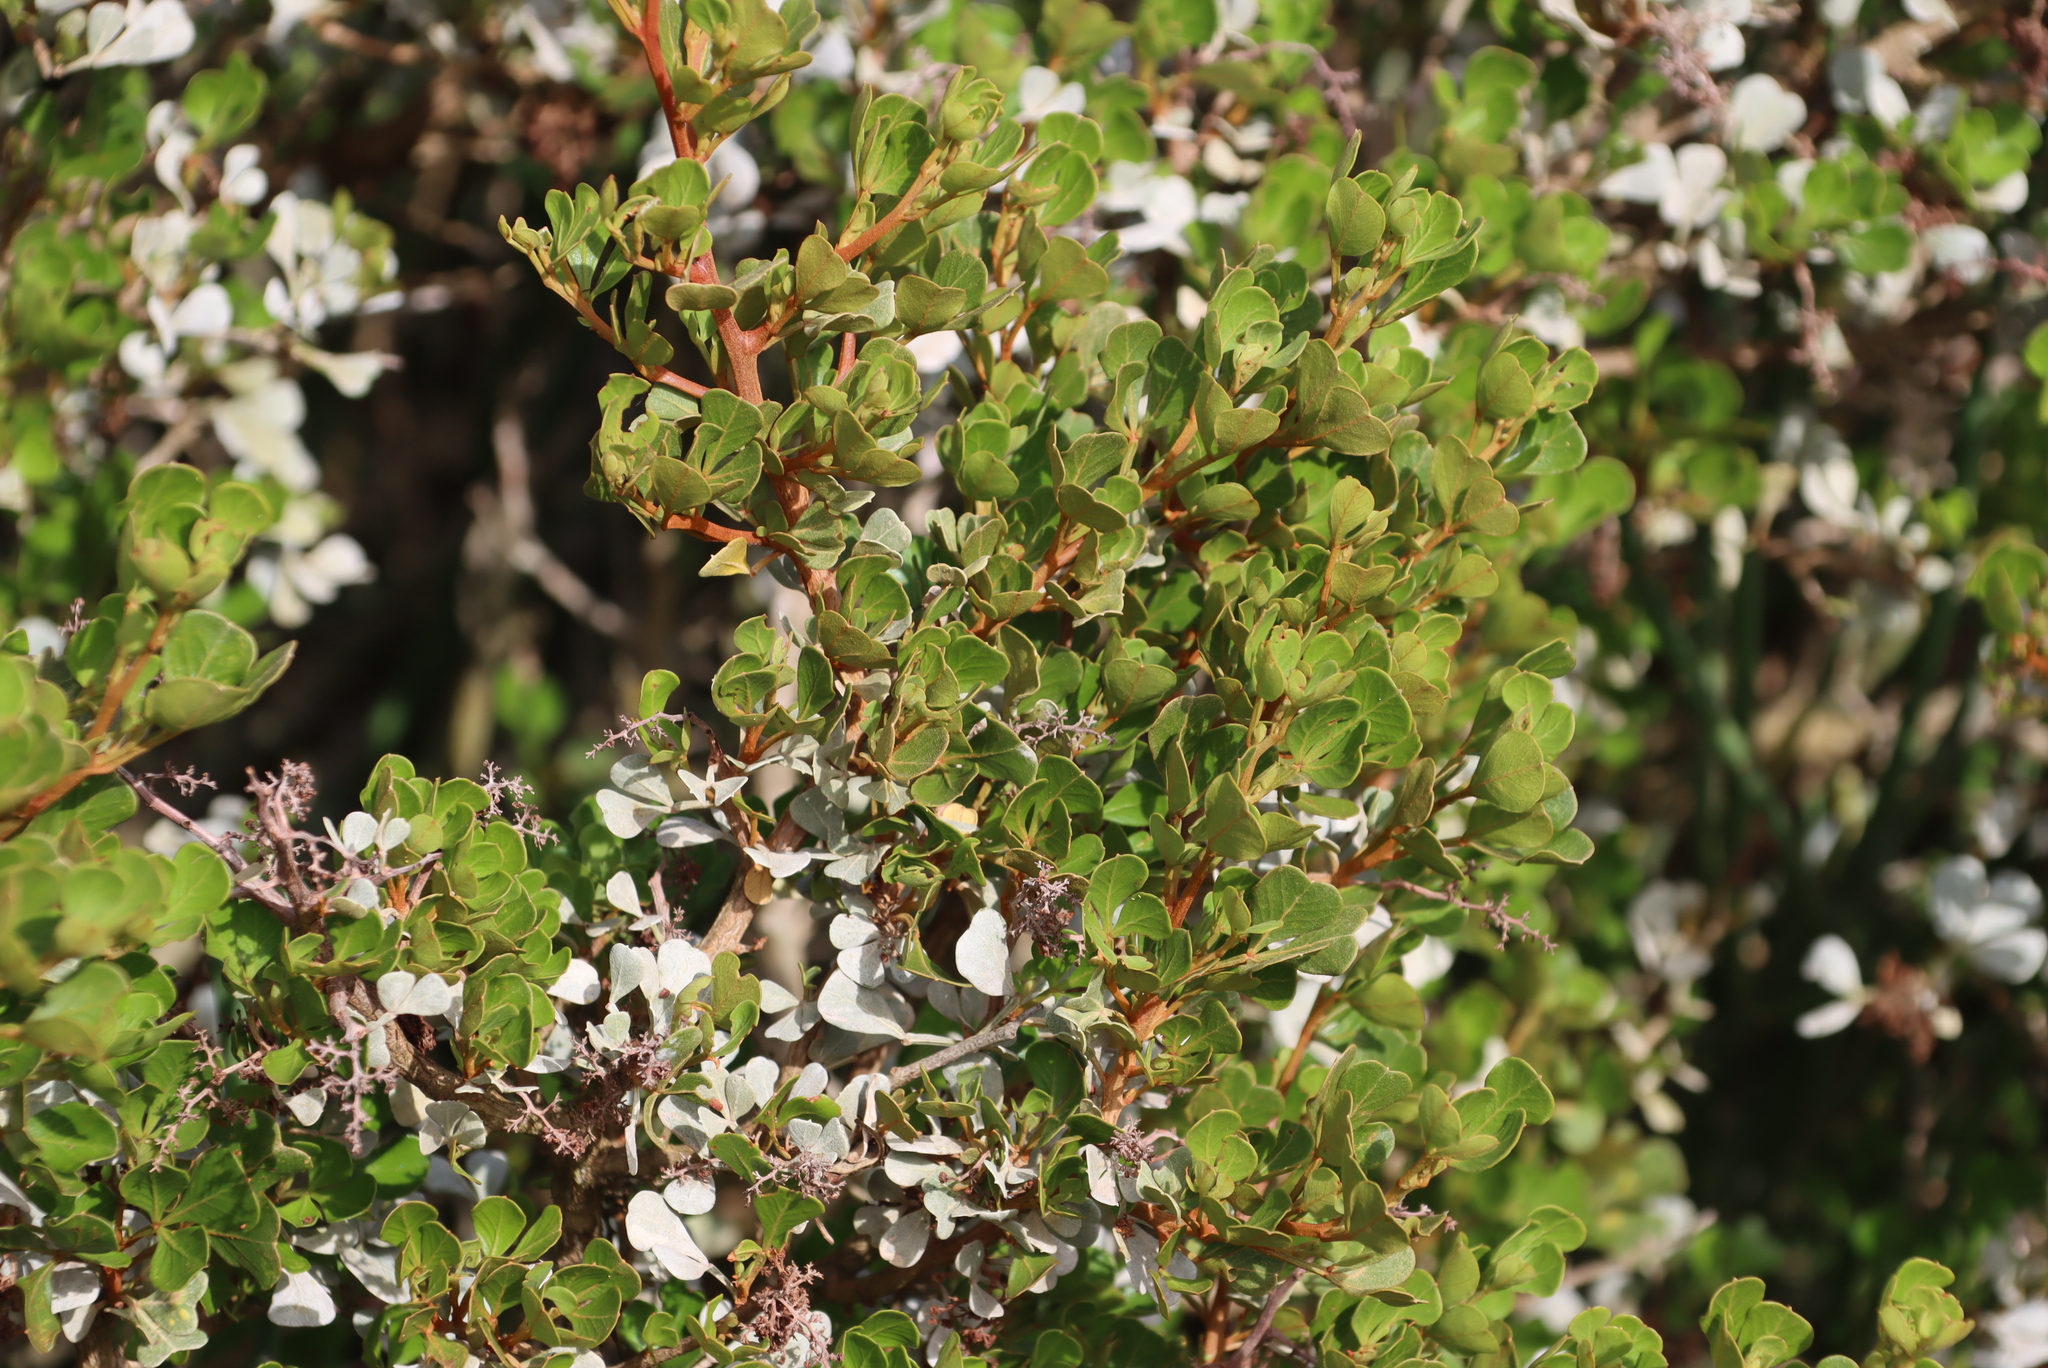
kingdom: Plantae
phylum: Tracheophyta
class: Magnoliopsida
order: Sapindales
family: Anacardiaceae
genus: Searsia
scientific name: Searsia glauca
